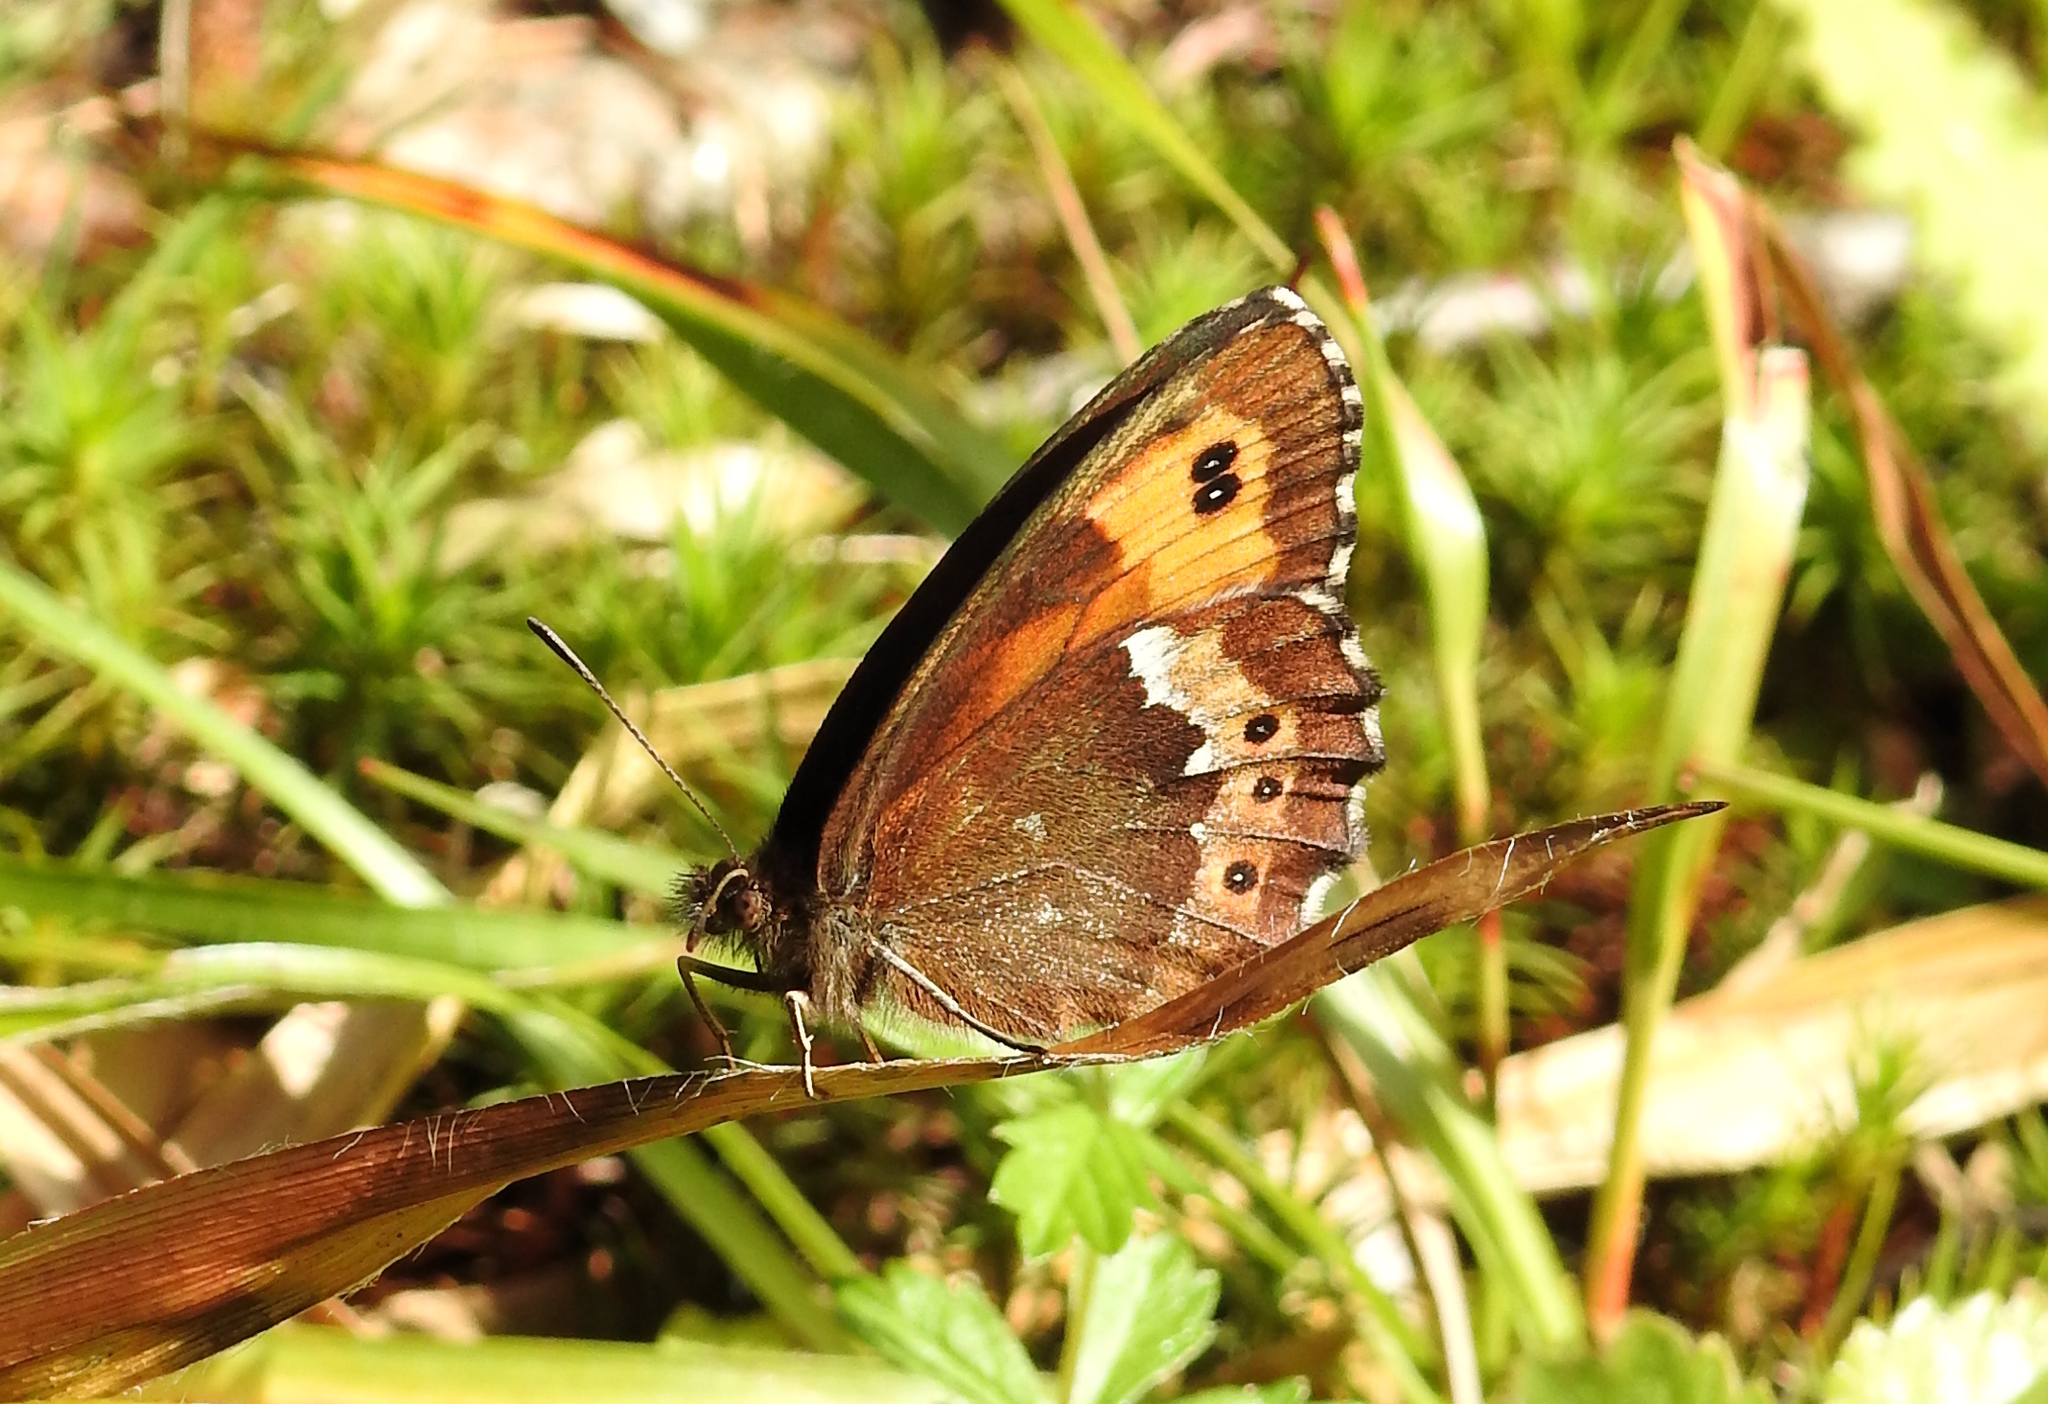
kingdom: Animalia
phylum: Arthropoda
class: Insecta
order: Lepidoptera
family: Nymphalidae
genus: Erebia
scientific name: Erebia ligea
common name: Arran brown
